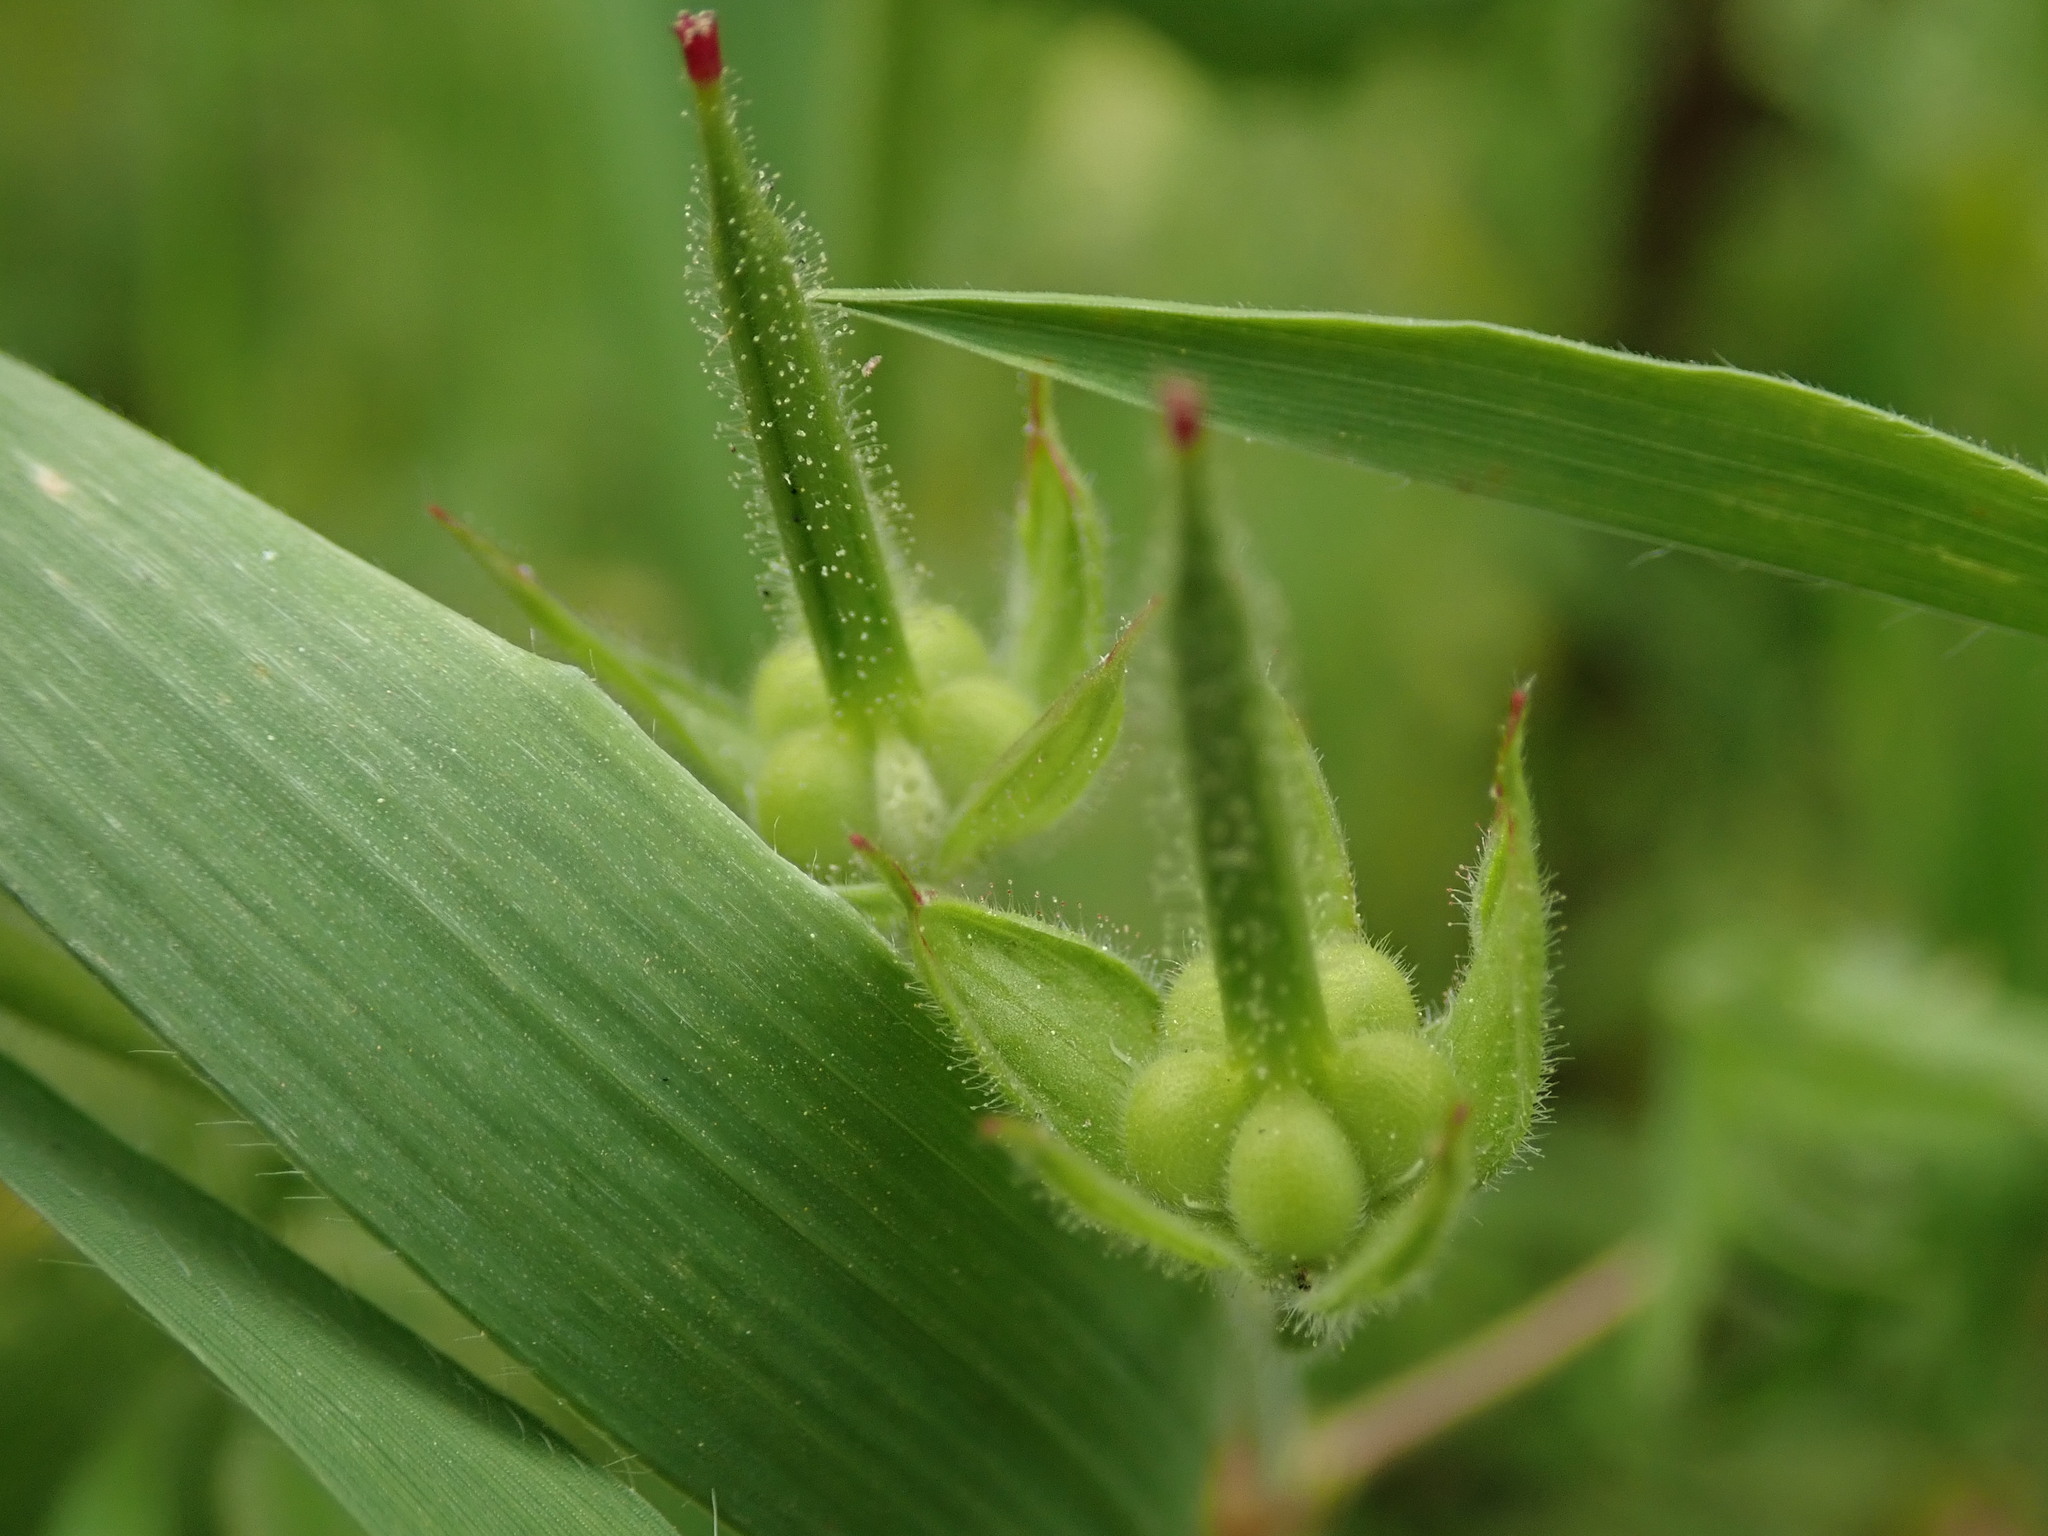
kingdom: Plantae
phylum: Tracheophyta
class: Magnoliopsida
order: Geraniales
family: Geraniaceae
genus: Geranium
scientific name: Geranium dissectum
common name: Cut-leaved crane's-bill
